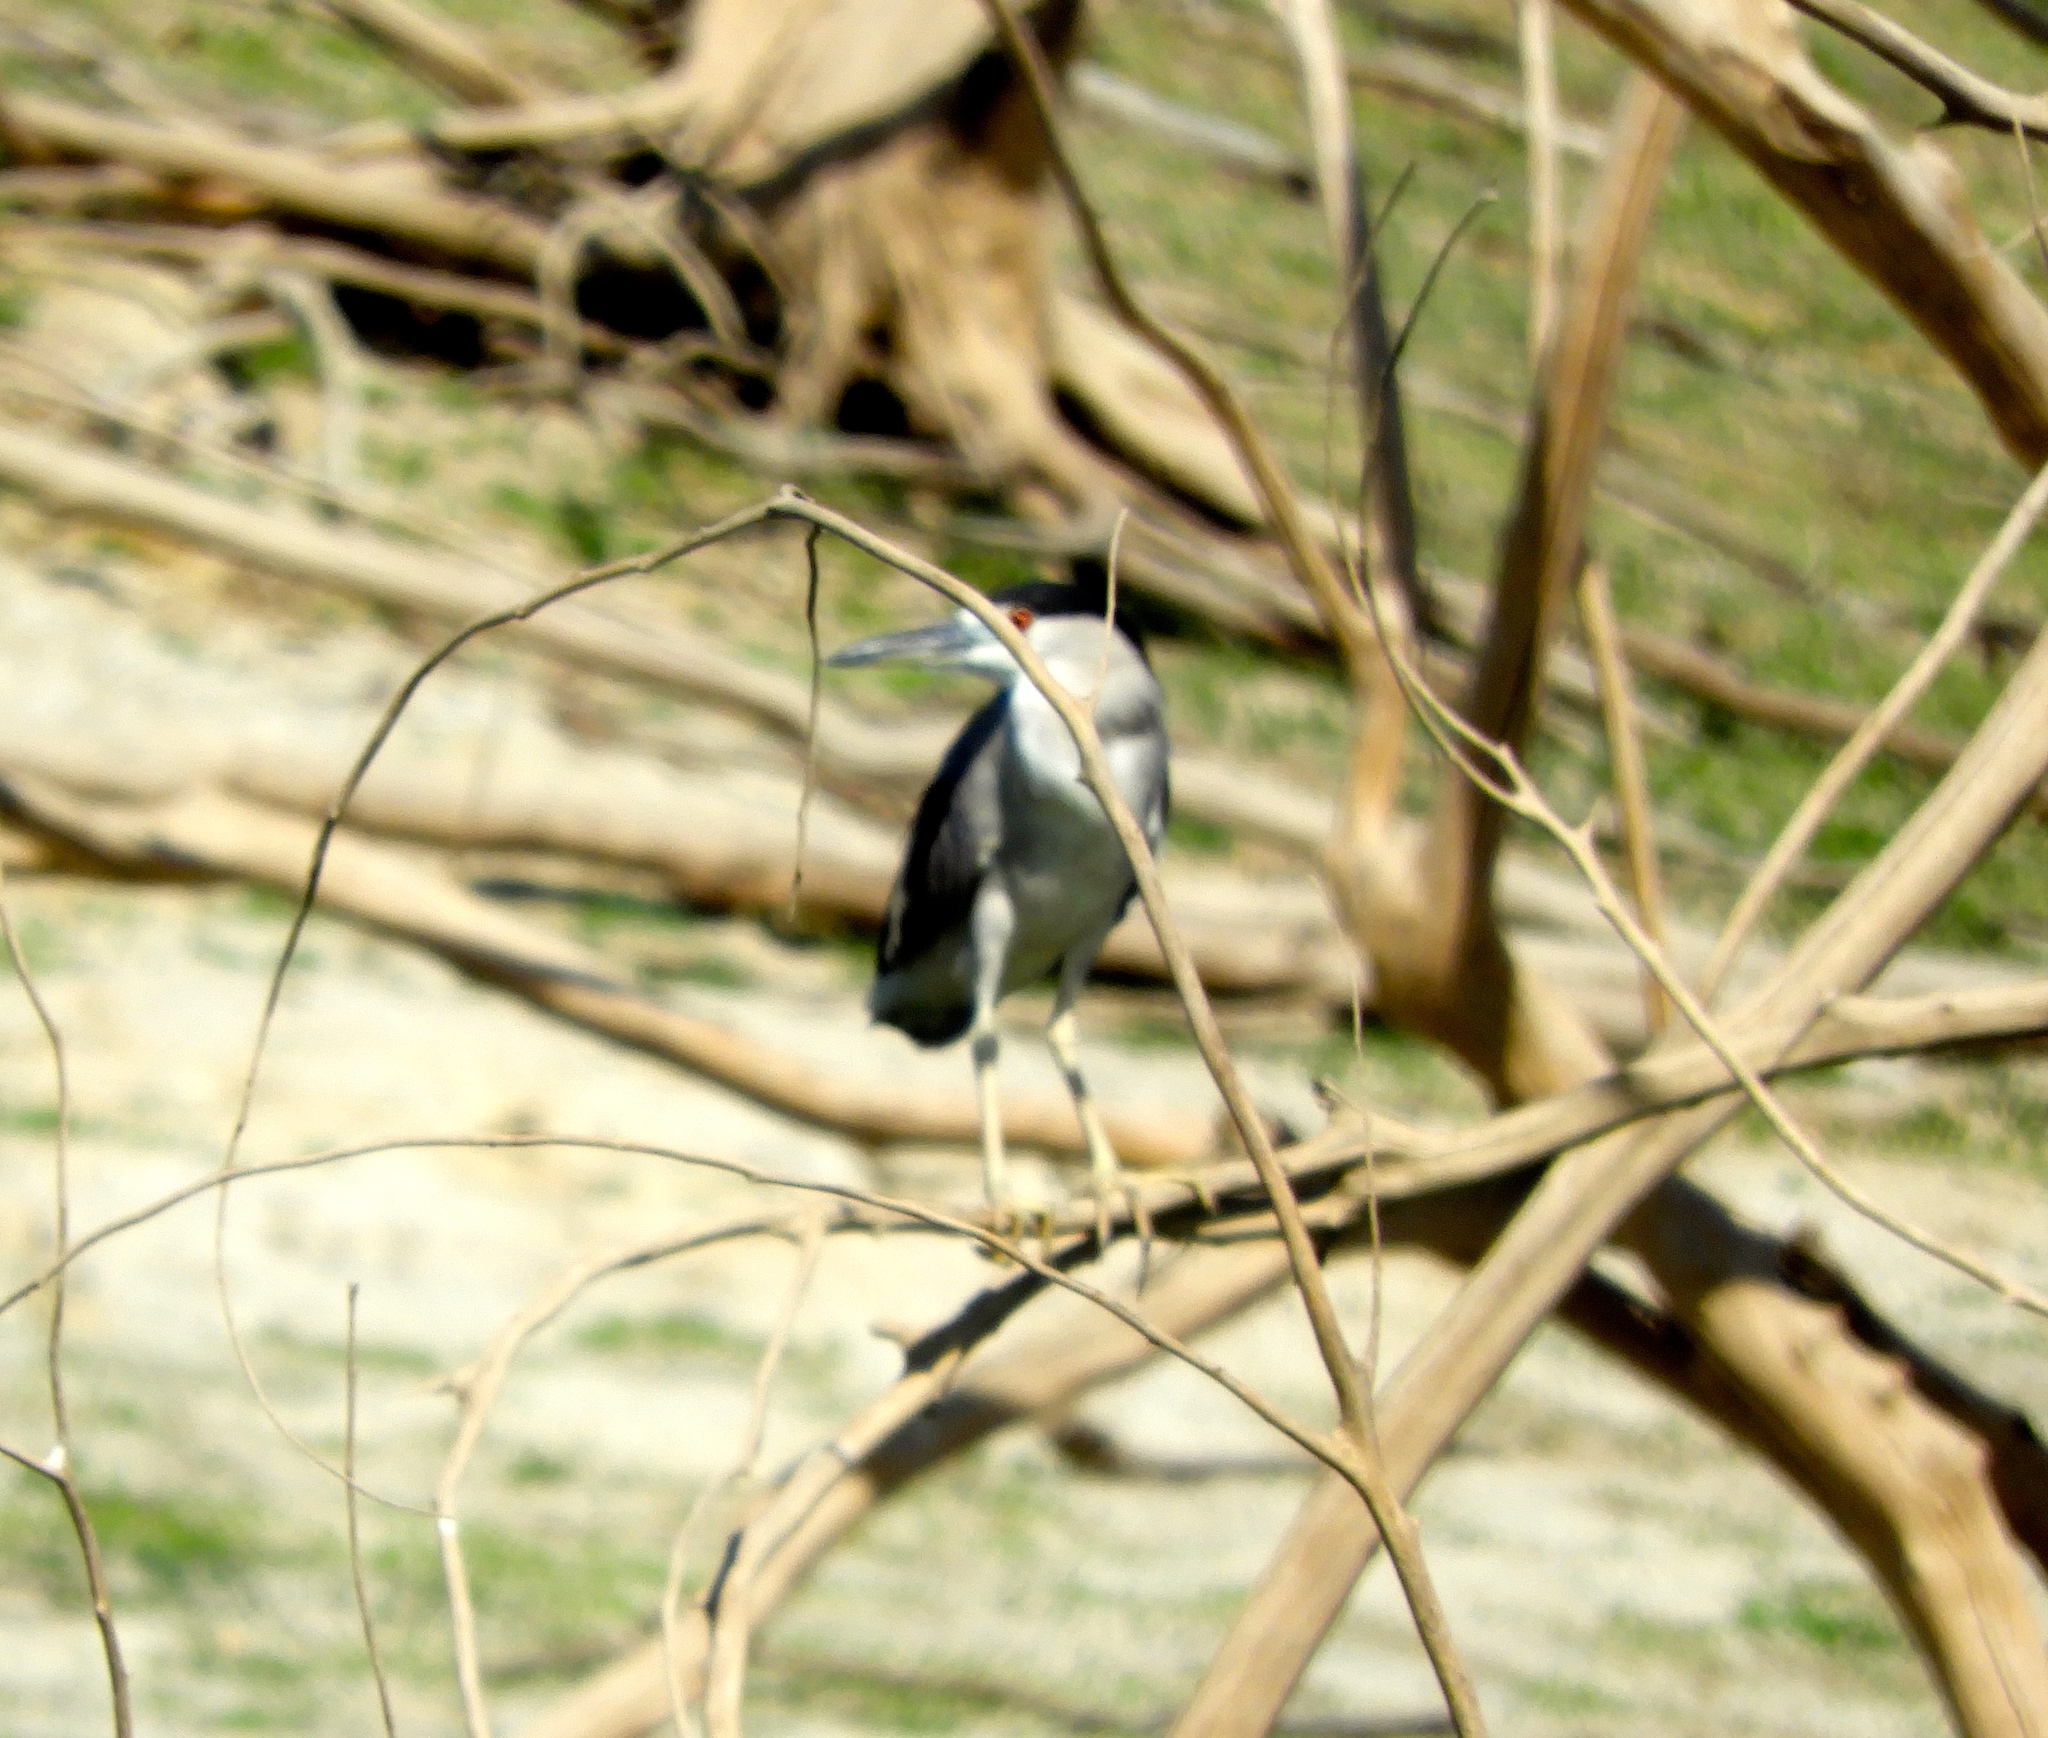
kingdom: Animalia
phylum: Chordata
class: Aves
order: Pelecaniformes
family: Ardeidae
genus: Nycticorax
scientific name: Nycticorax nycticorax
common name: Black-crowned night heron
